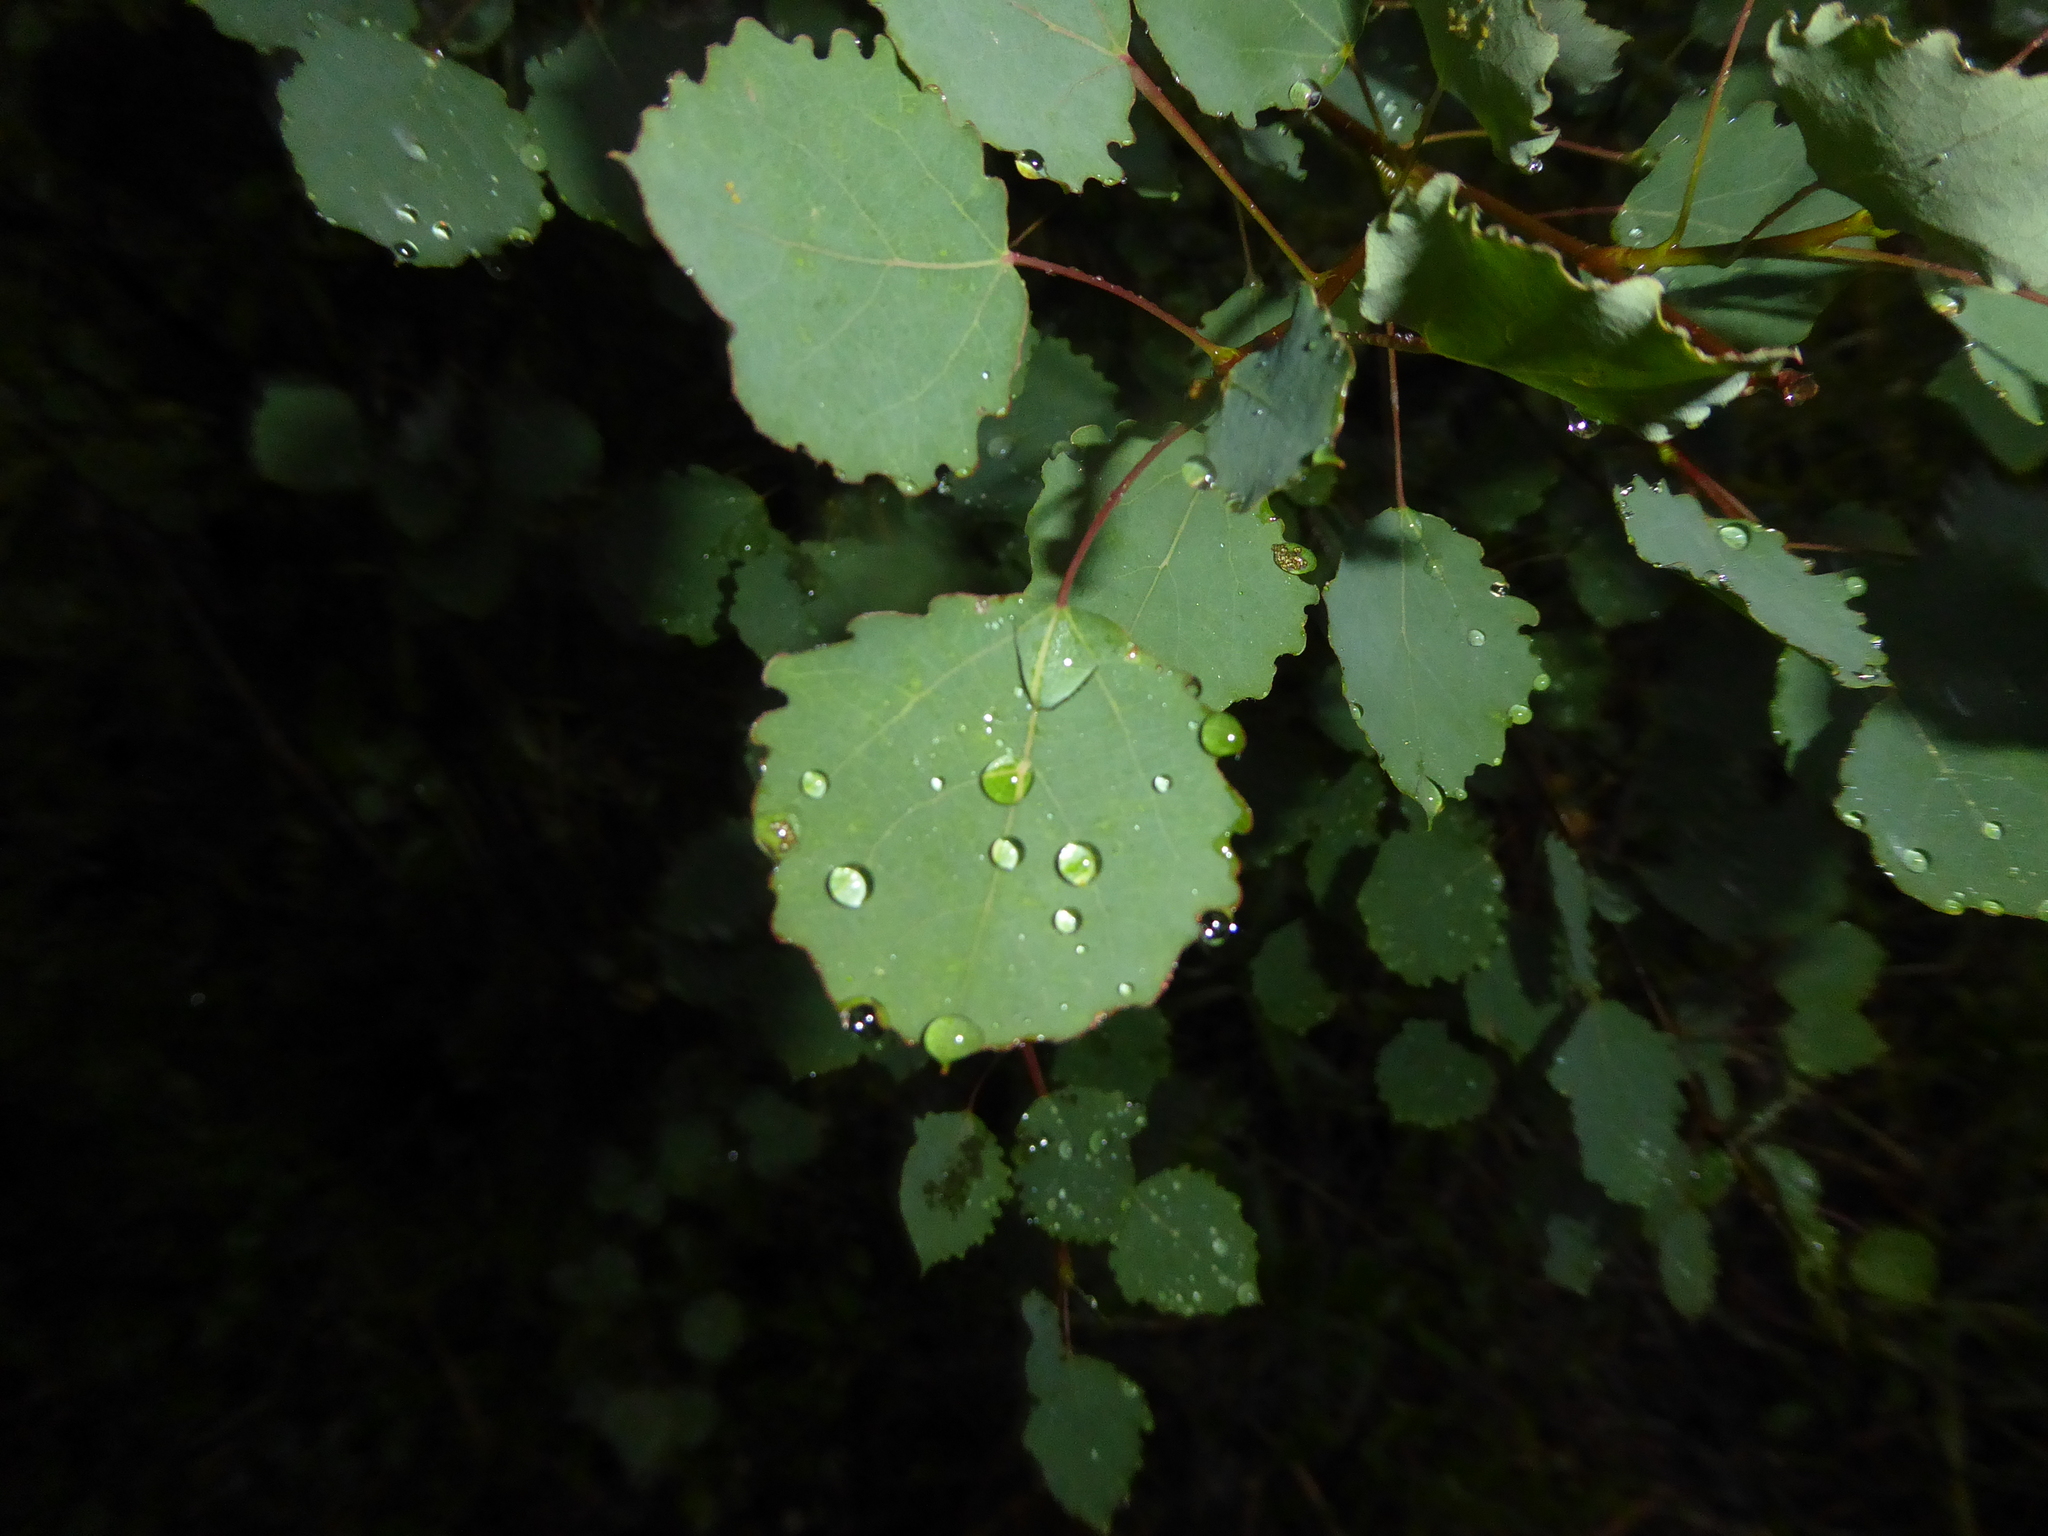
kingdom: Plantae
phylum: Tracheophyta
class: Magnoliopsida
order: Malpighiales
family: Salicaceae
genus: Populus
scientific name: Populus tremula
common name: European aspen
